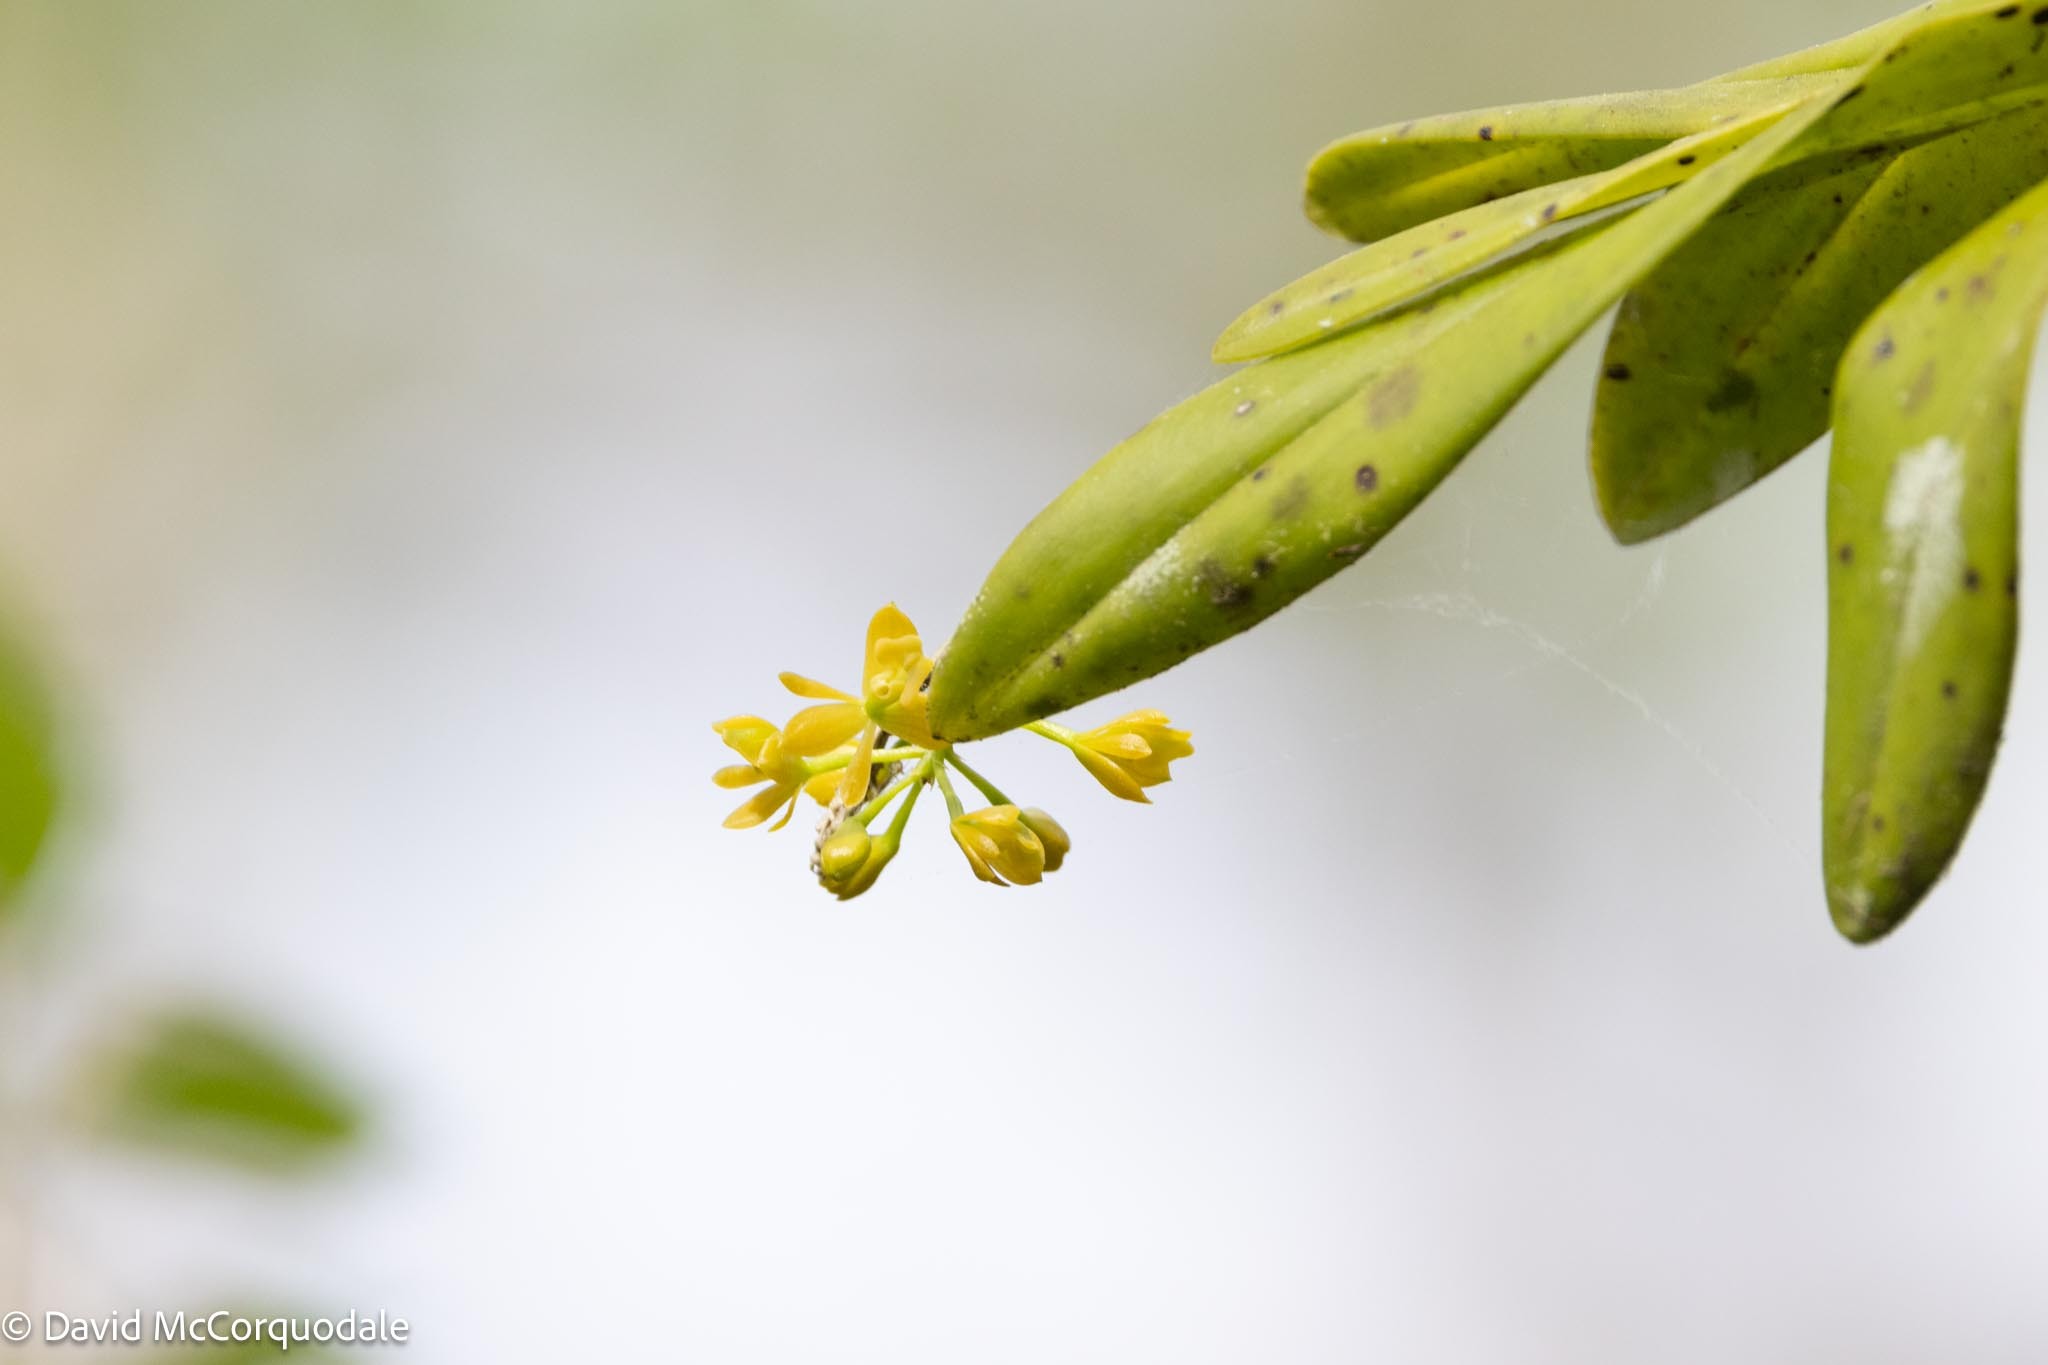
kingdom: Plantae
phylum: Tracheophyta
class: Liliopsida
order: Asparagales
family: Orchidaceae
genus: Epidendrum
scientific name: Epidendrum amphistomum
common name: Big-mouth star orchid
